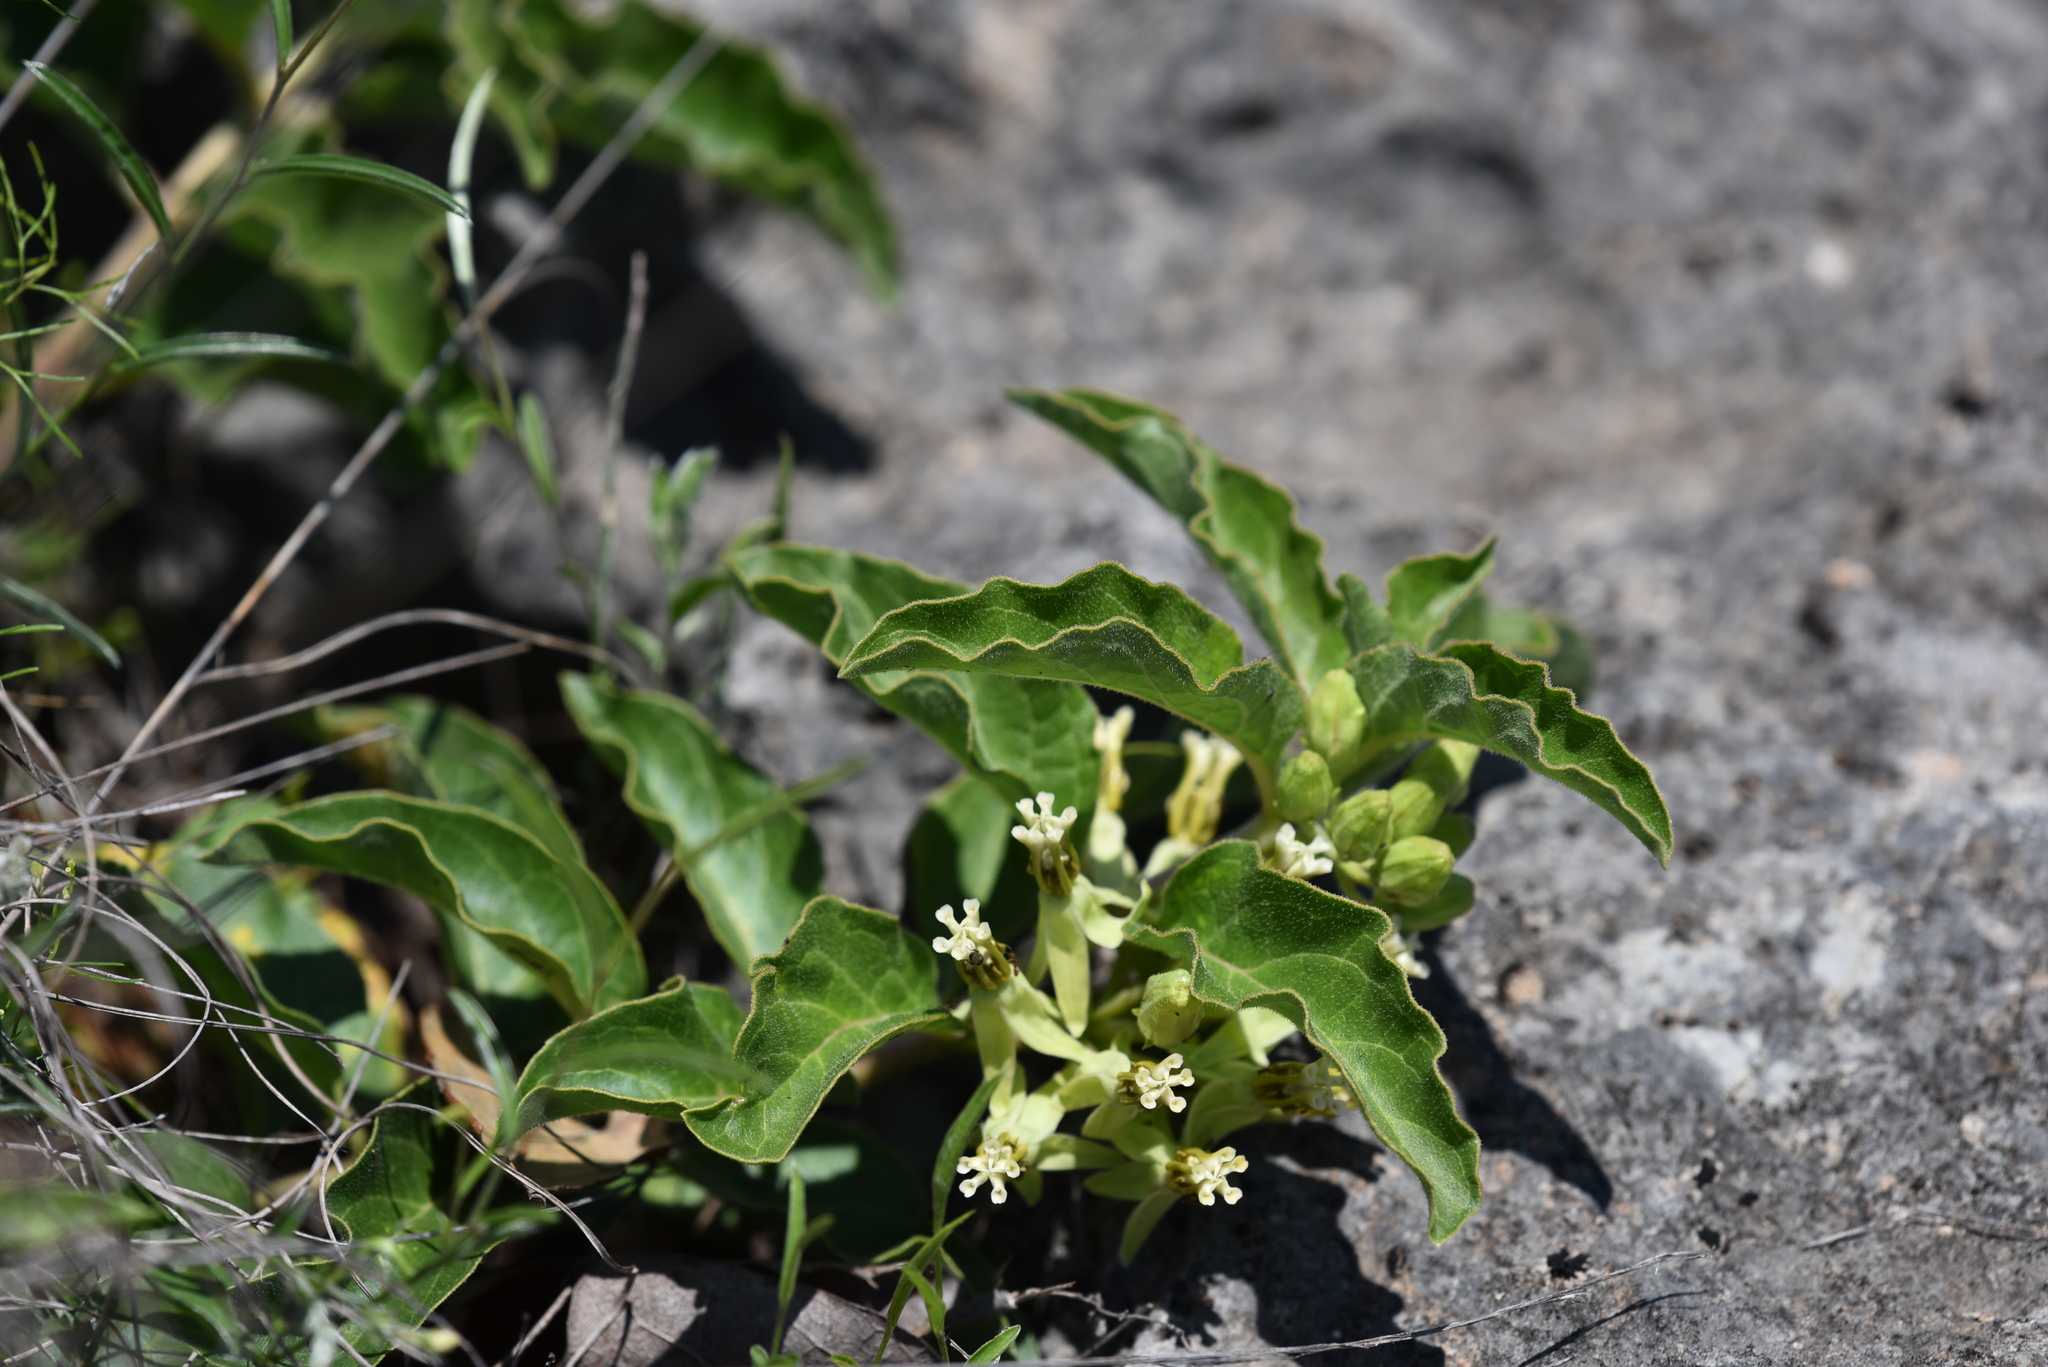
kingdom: Plantae
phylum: Tracheophyta
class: Magnoliopsida
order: Gentianales
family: Apocynaceae
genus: Asclepias
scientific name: Asclepias oenotheroides
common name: Zizotes milkweed
